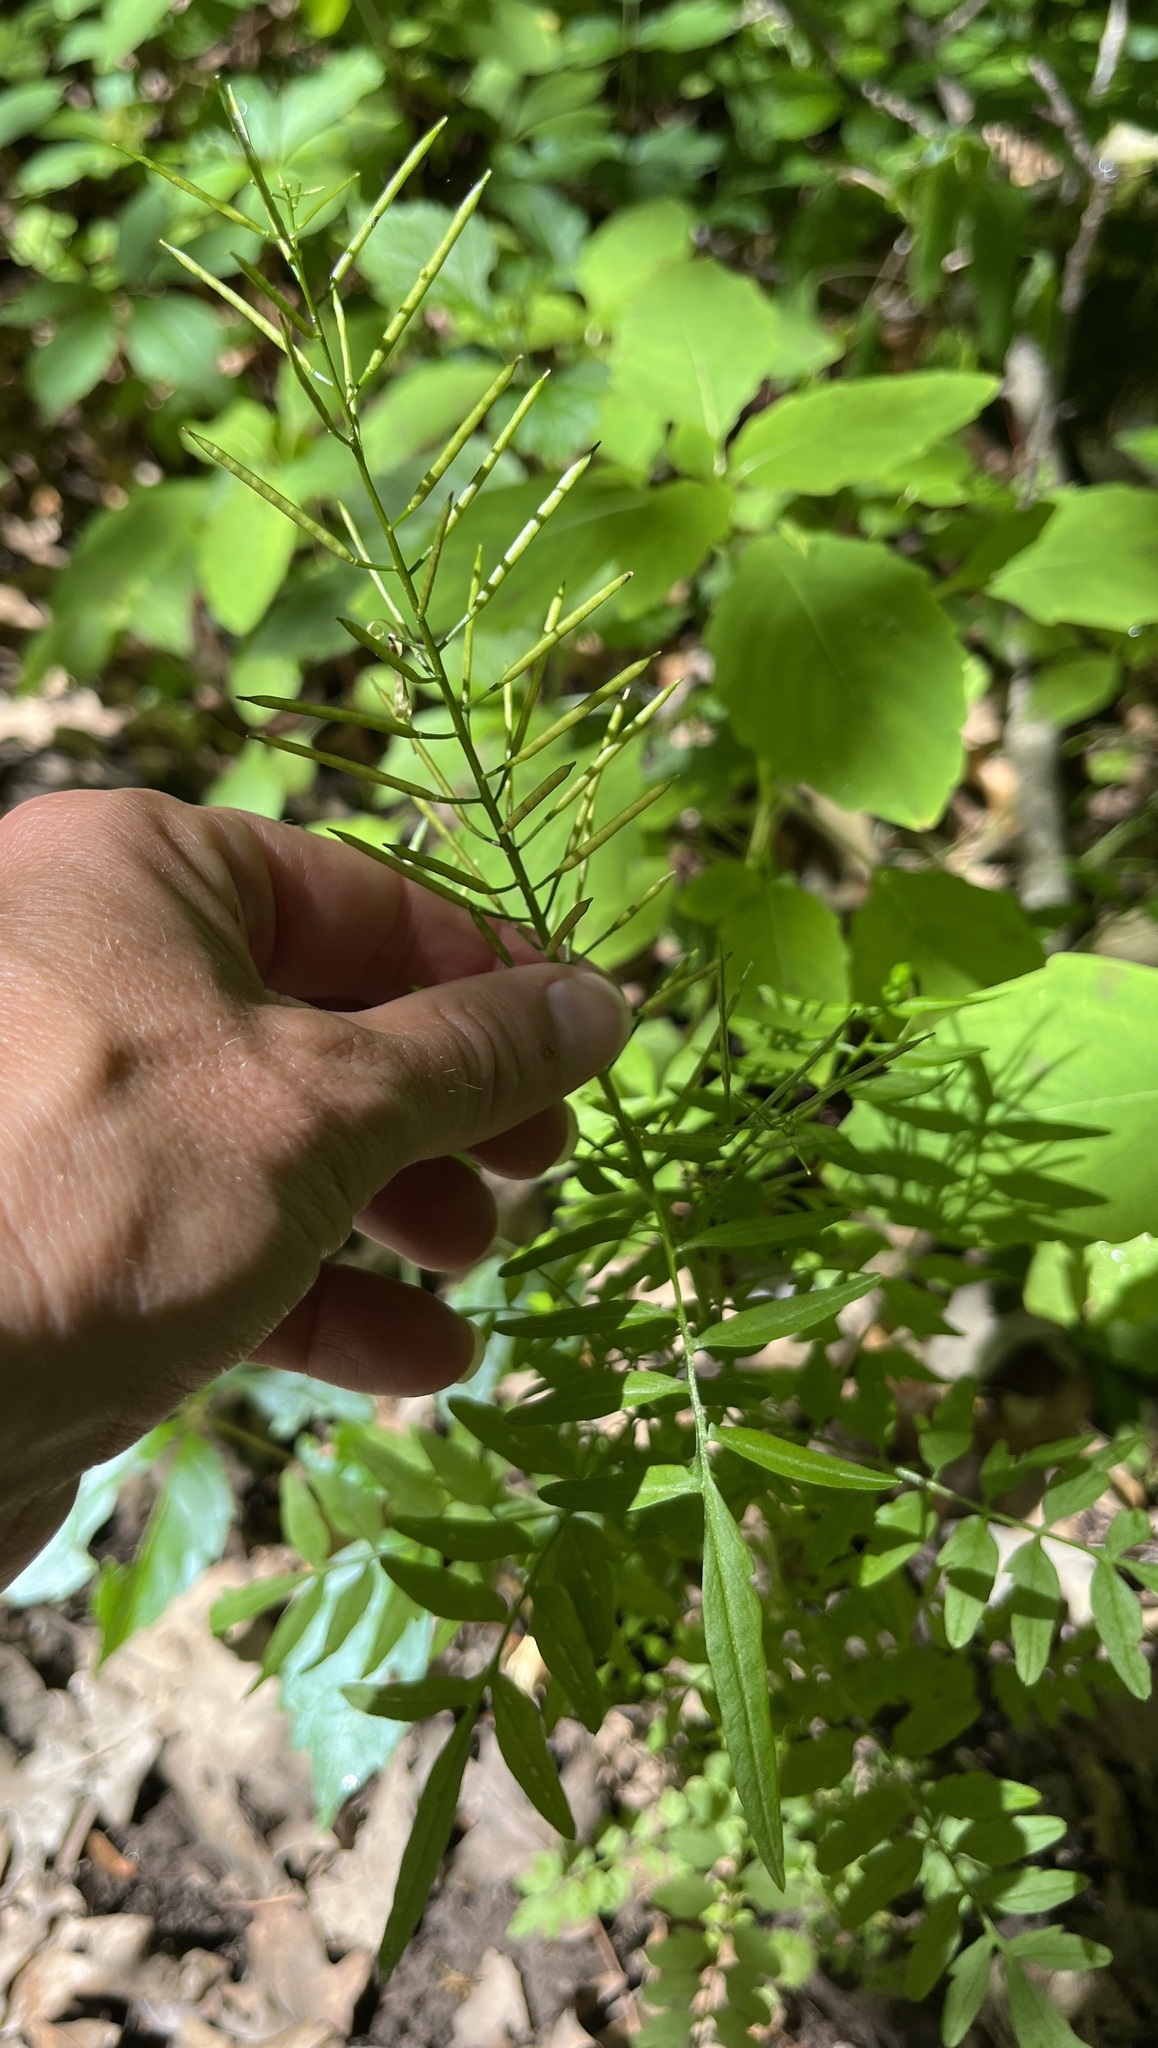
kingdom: Plantae
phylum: Tracheophyta
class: Magnoliopsida
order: Brassicales
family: Brassicaceae
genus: Cardamine
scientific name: Cardamine impatiens
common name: Narrow-leaved bitter-cress
